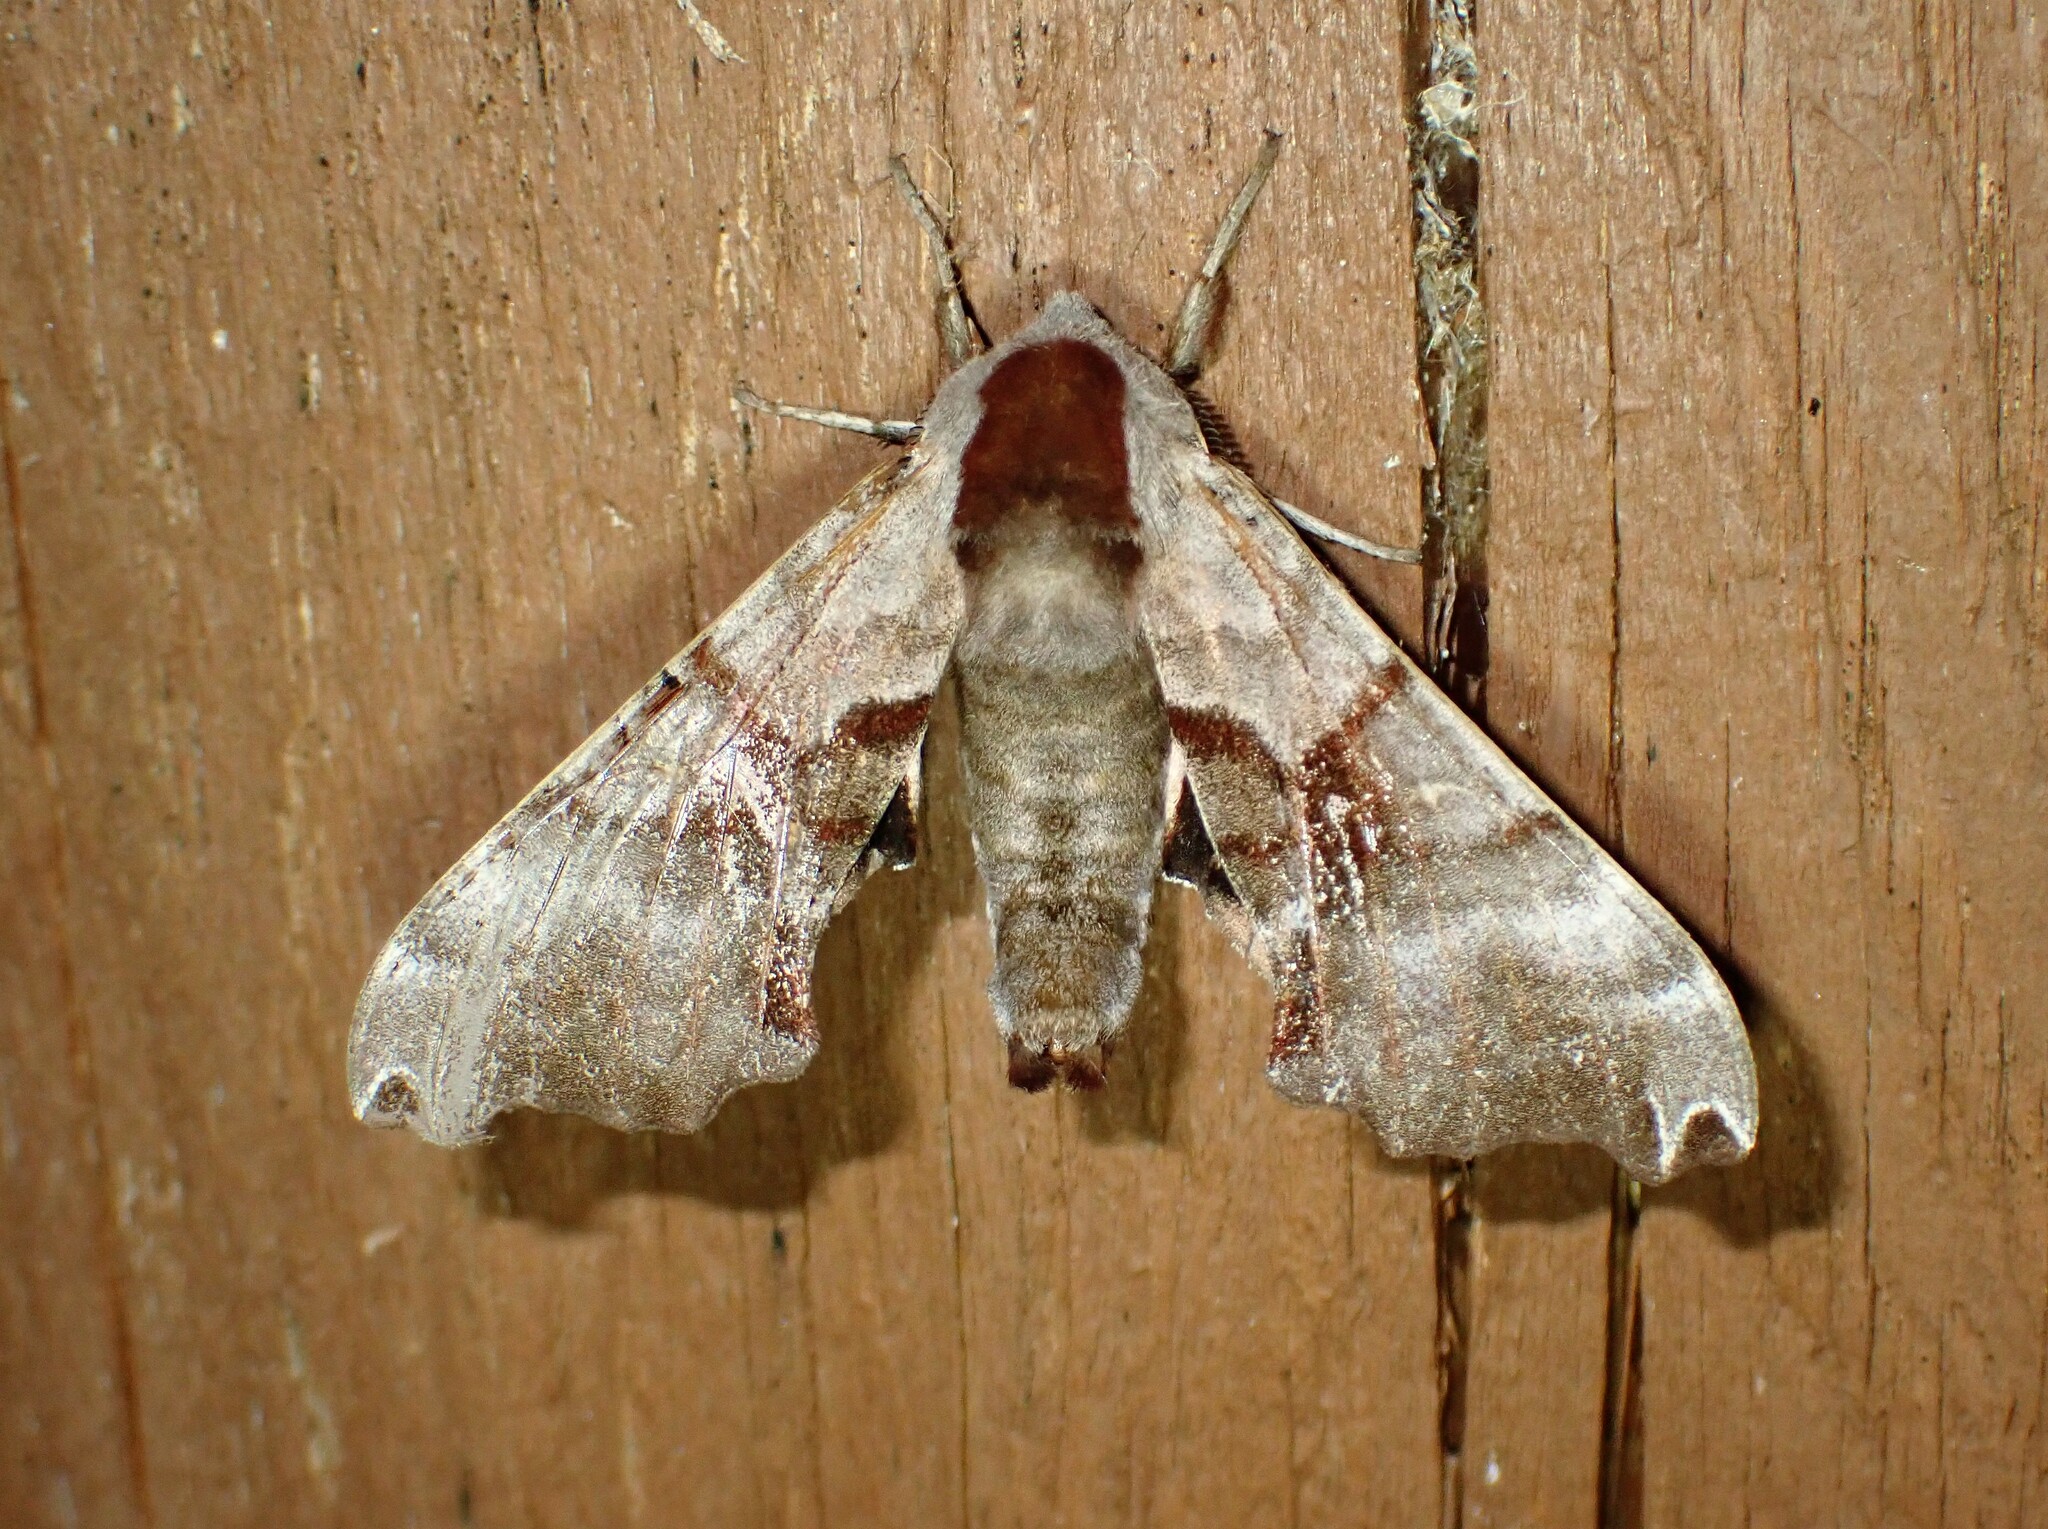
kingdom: Animalia
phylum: Arthropoda
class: Insecta
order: Lepidoptera
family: Sphingidae
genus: Smerinthus
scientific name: Smerinthus jamaicensis
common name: Twin spotted sphinx
